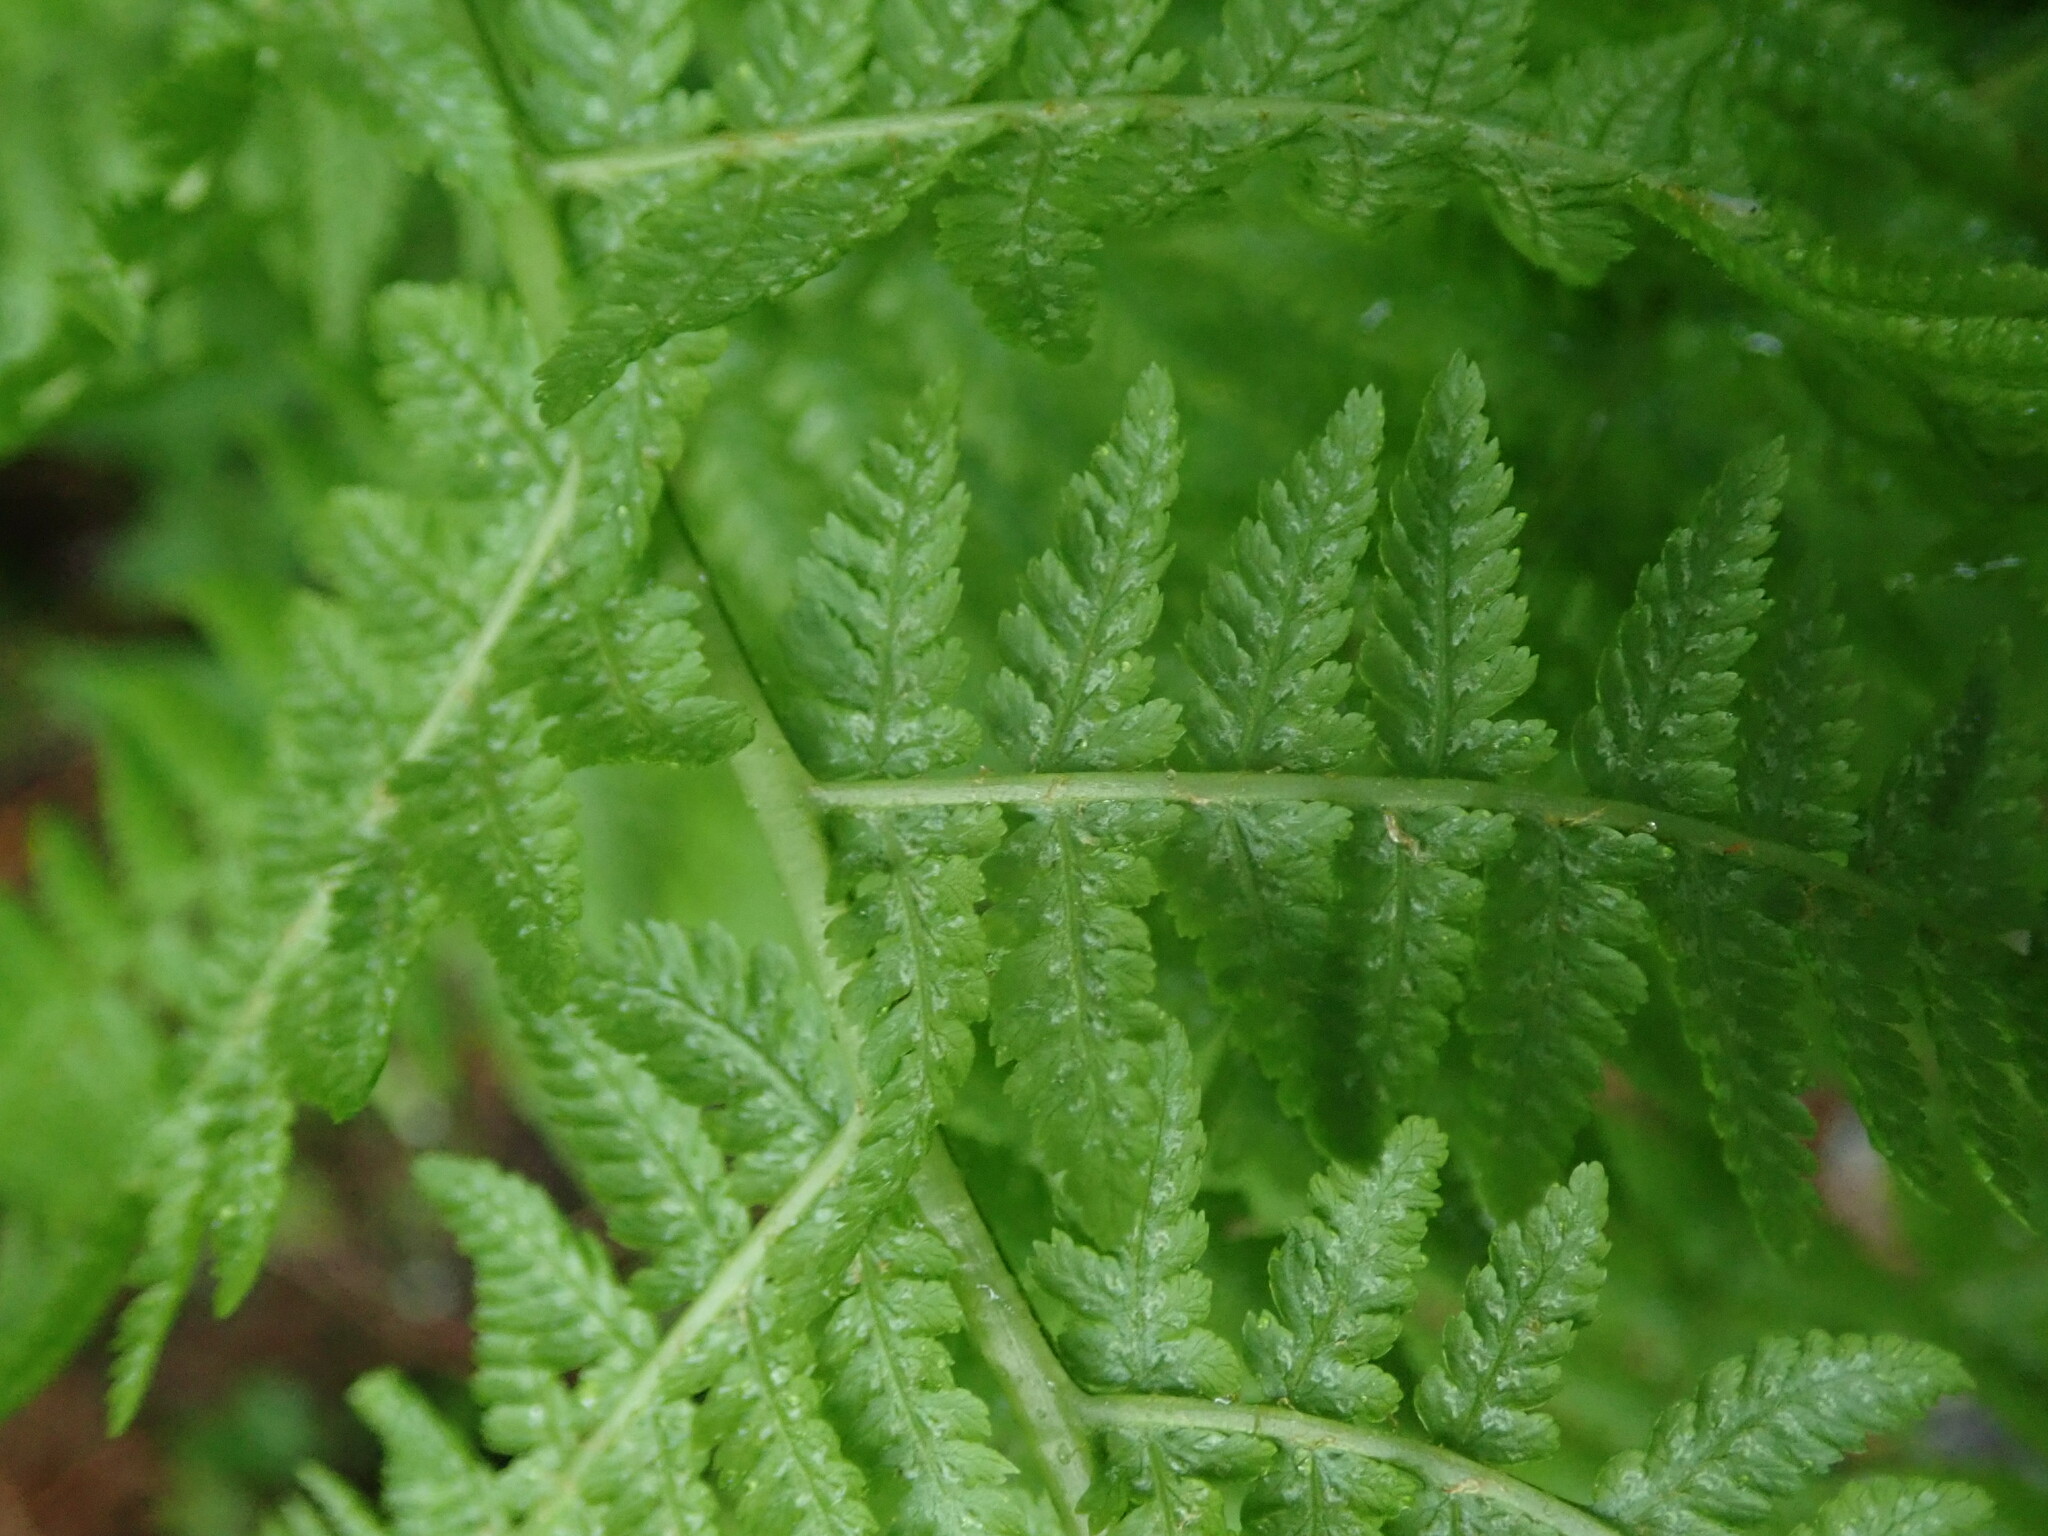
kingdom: Plantae
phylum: Tracheophyta
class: Polypodiopsida
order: Polypodiales
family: Athyriaceae
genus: Athyrium
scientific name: Athyrium filix-femina
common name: Lady fern
